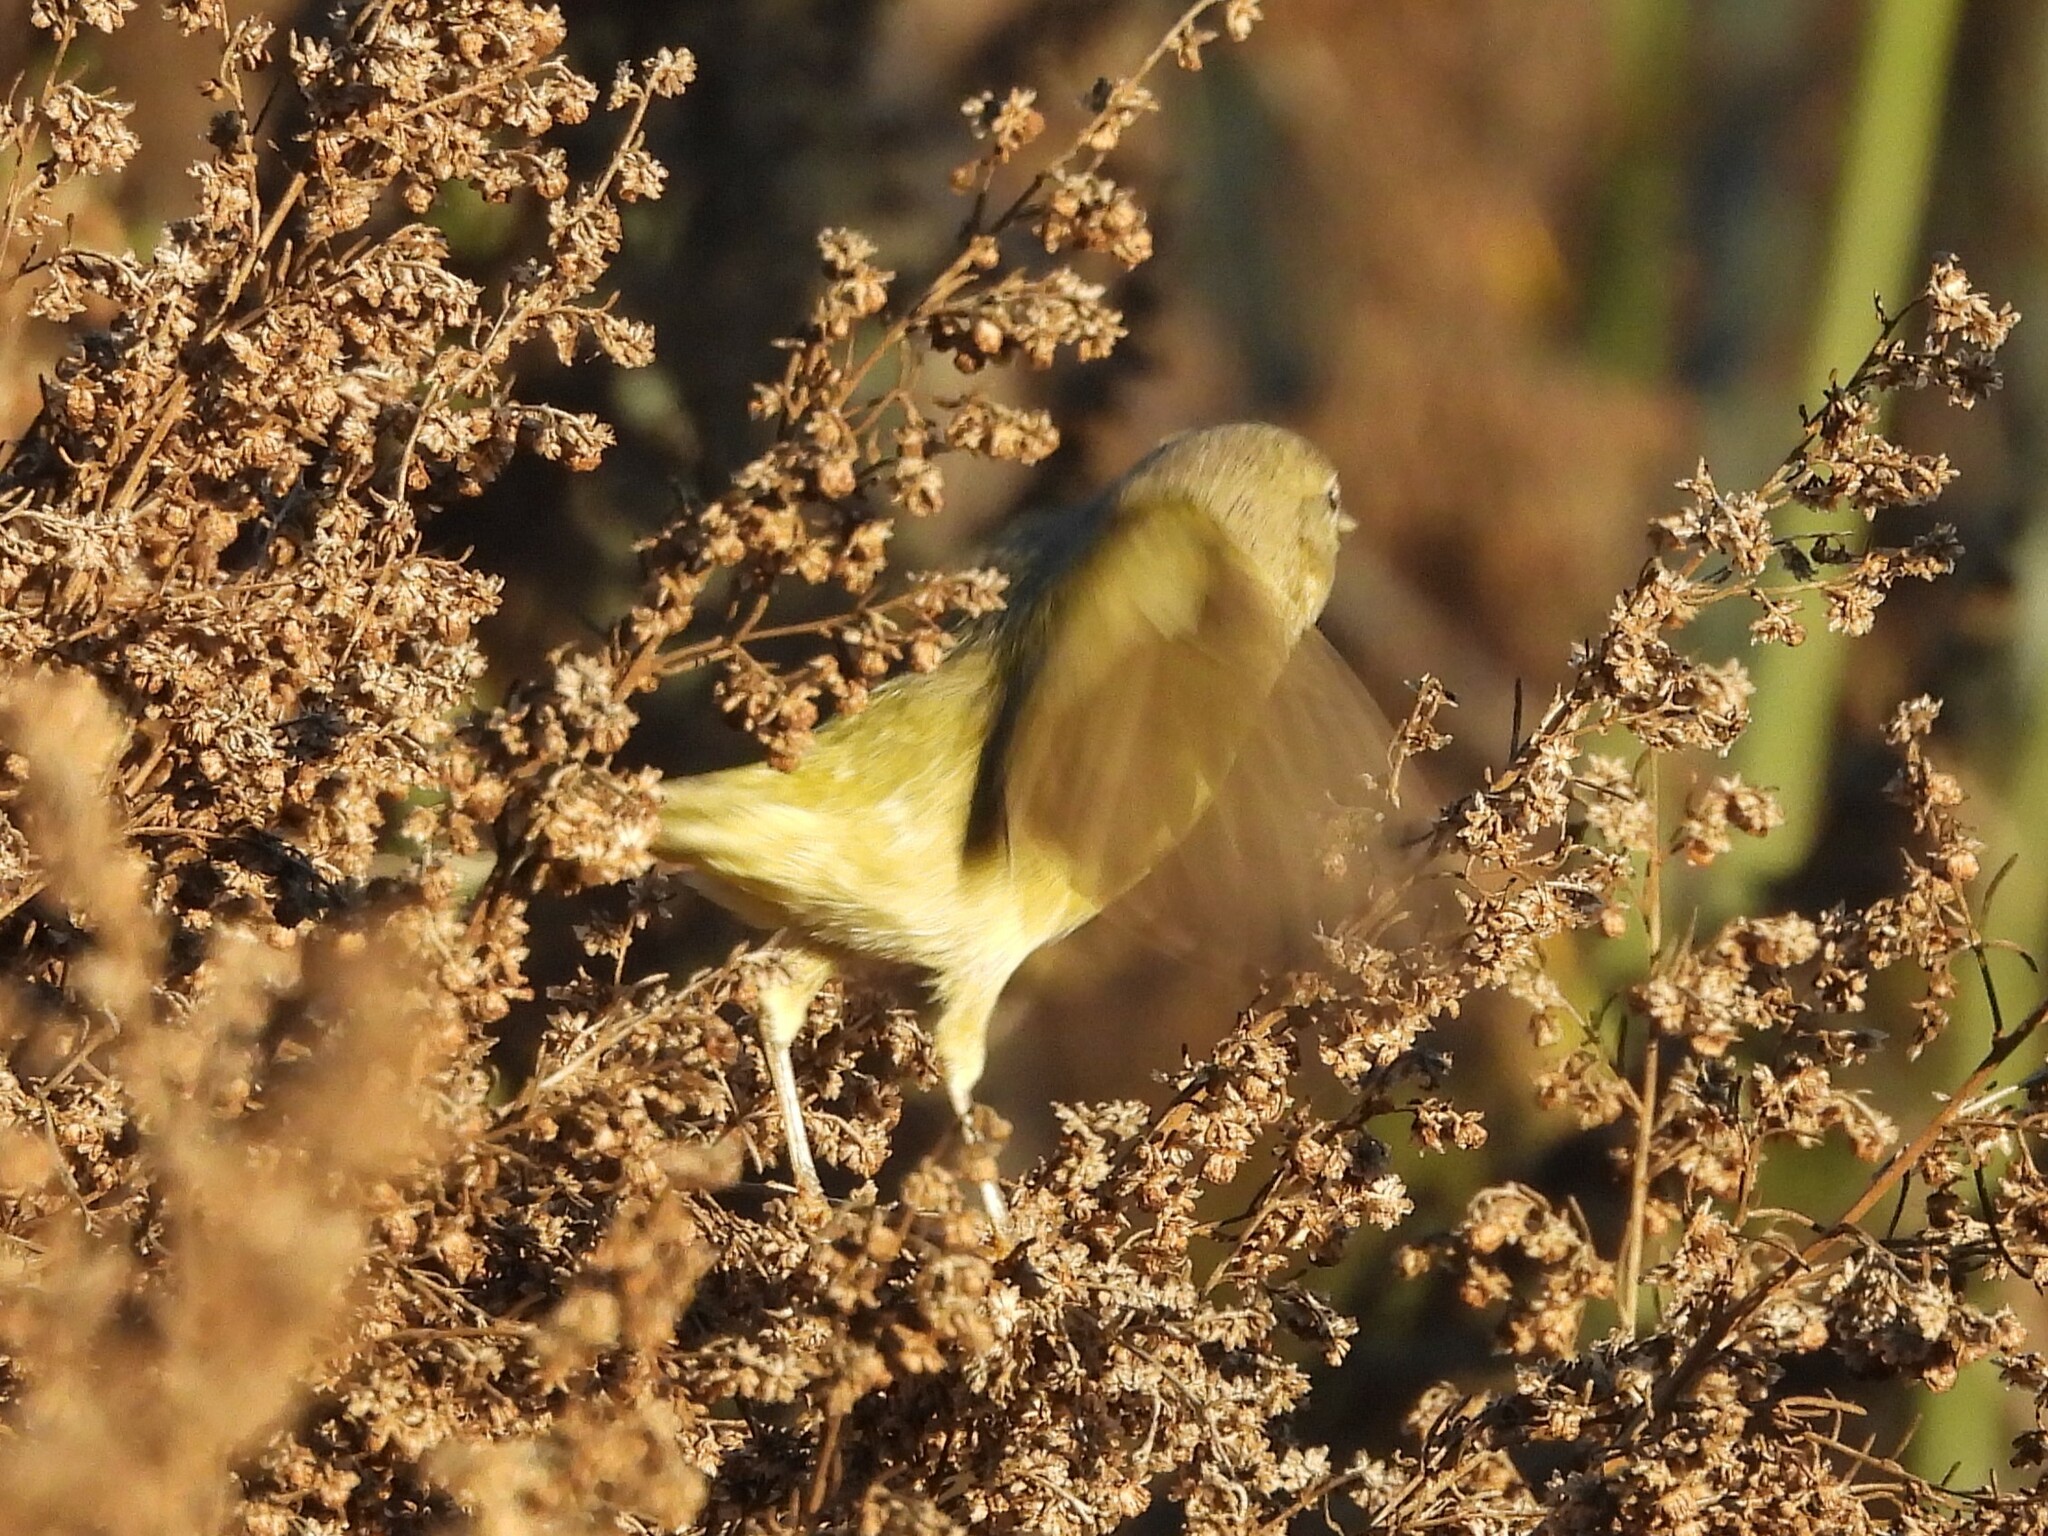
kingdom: Animalia
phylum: Chordata
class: Aves
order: Passeriformes
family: Parulidae
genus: Leiothlypis
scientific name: Leiothlypis celata
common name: Orange-crowned warbler
